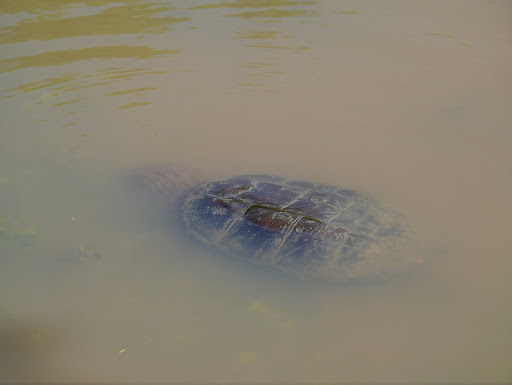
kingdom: Animalia
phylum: Chordata
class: Testudines
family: Chelydridae
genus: Chelydra
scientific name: Chelydra serpentina
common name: Common snapping turtle
